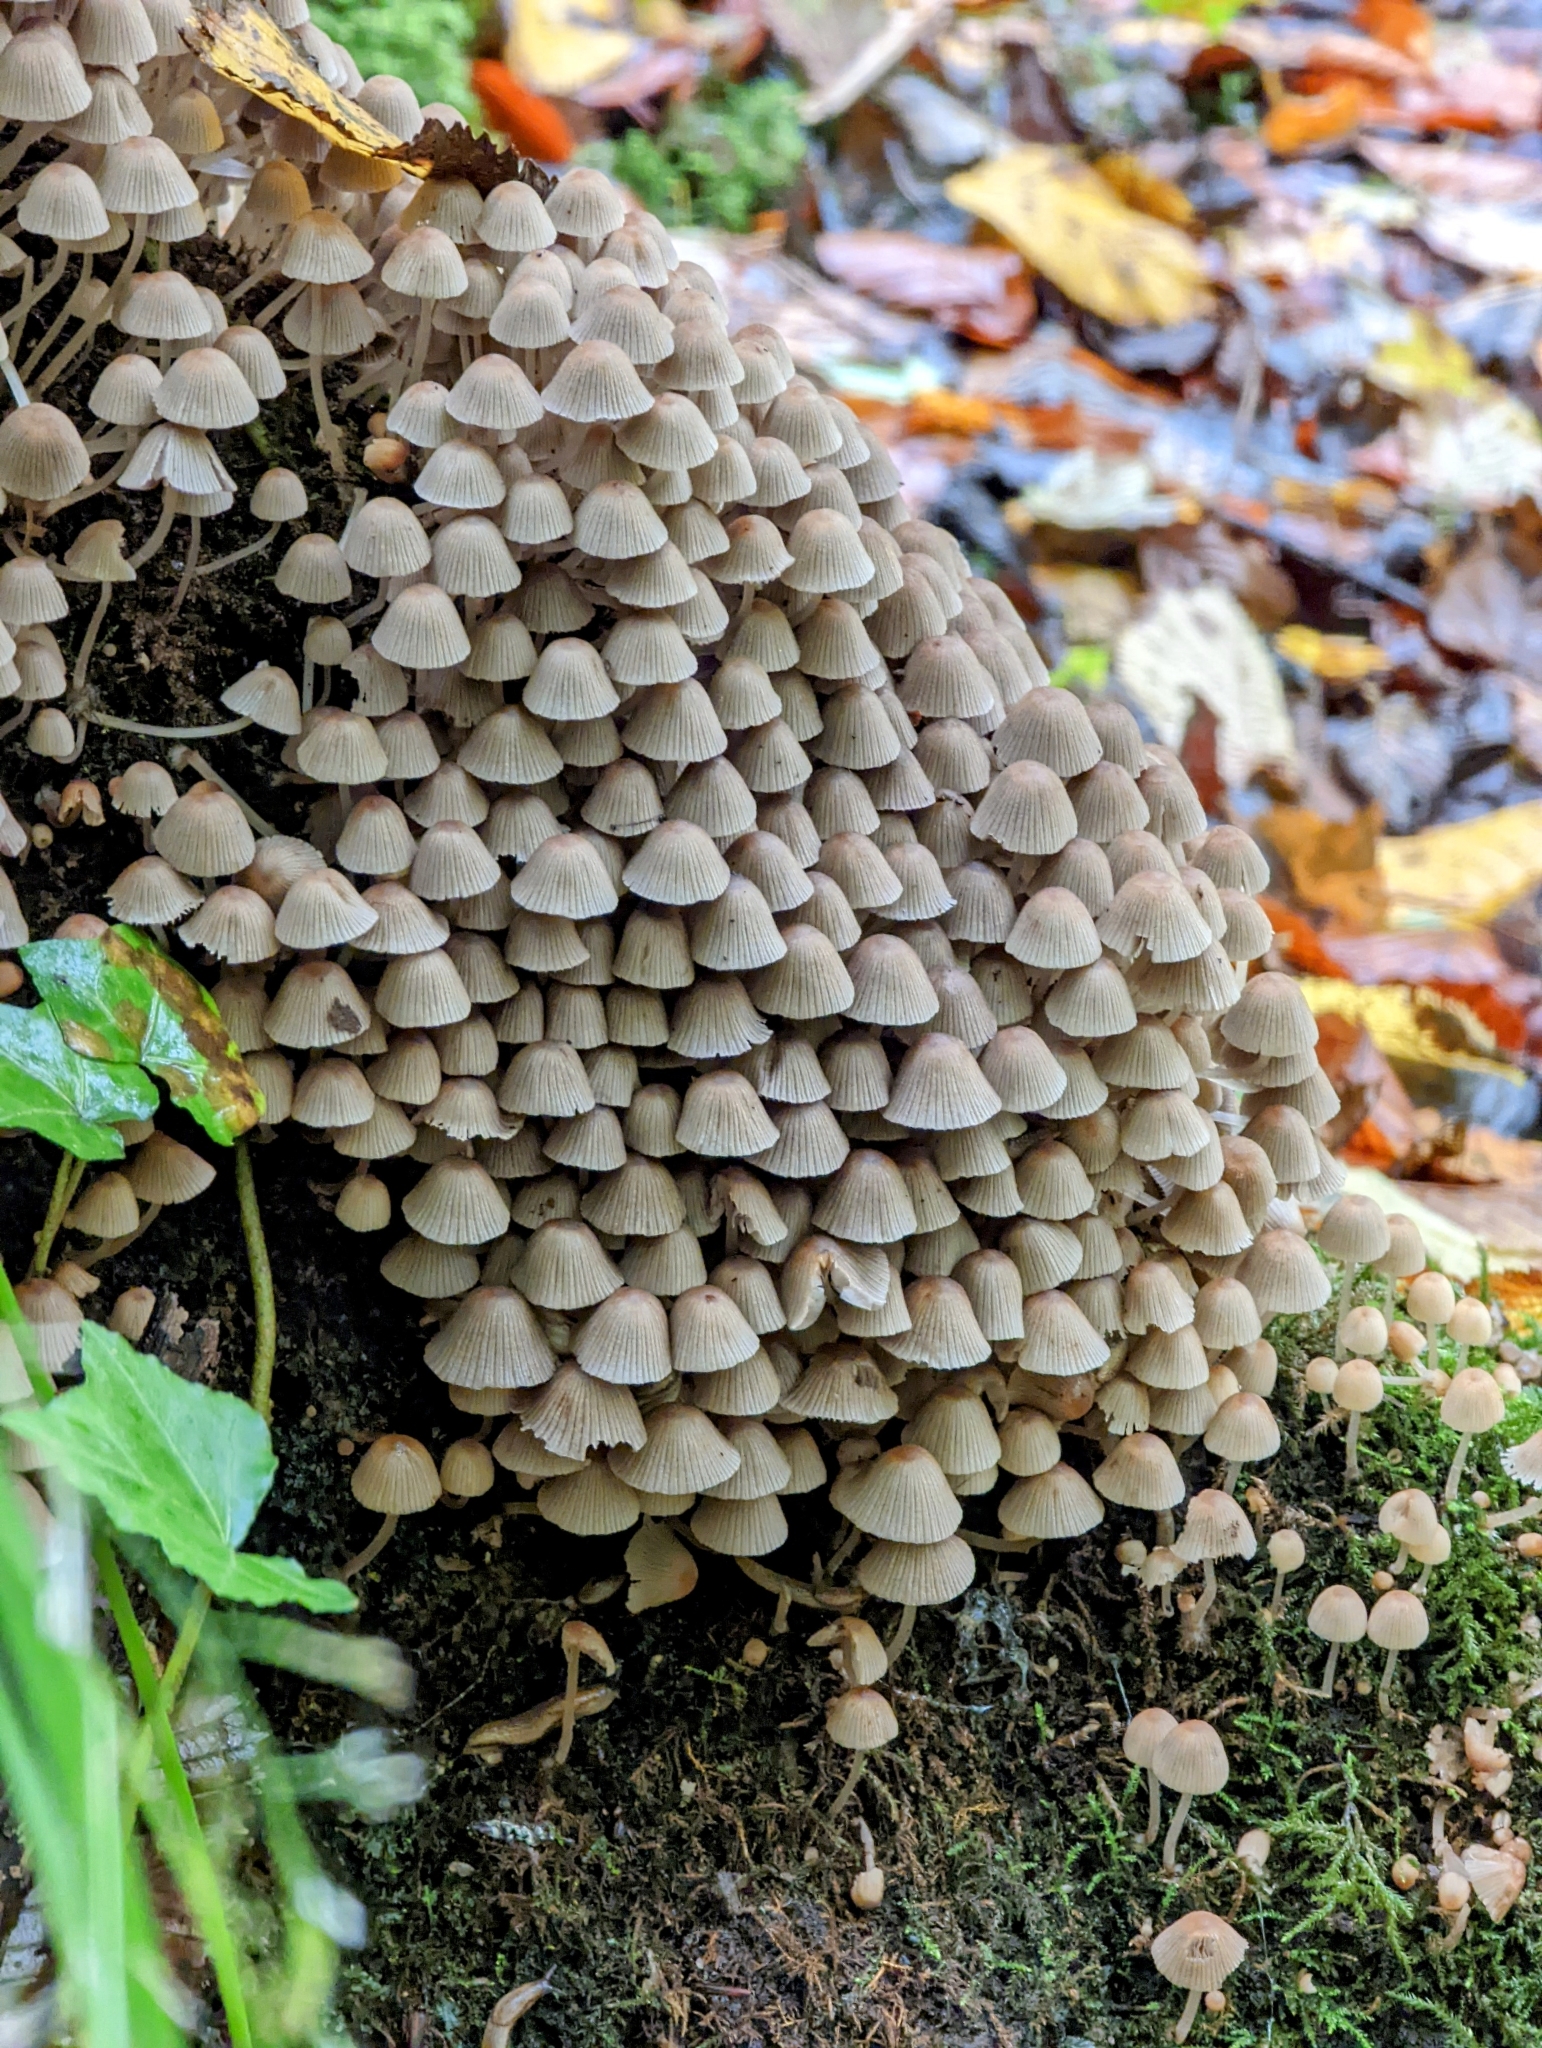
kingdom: Fungi
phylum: Basidiomycota
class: Agaricomycetes
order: Agaricales
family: Psathyrellaceae
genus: Coprinellus
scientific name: Coprinellus disseminatus
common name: Fairies' bonnets
